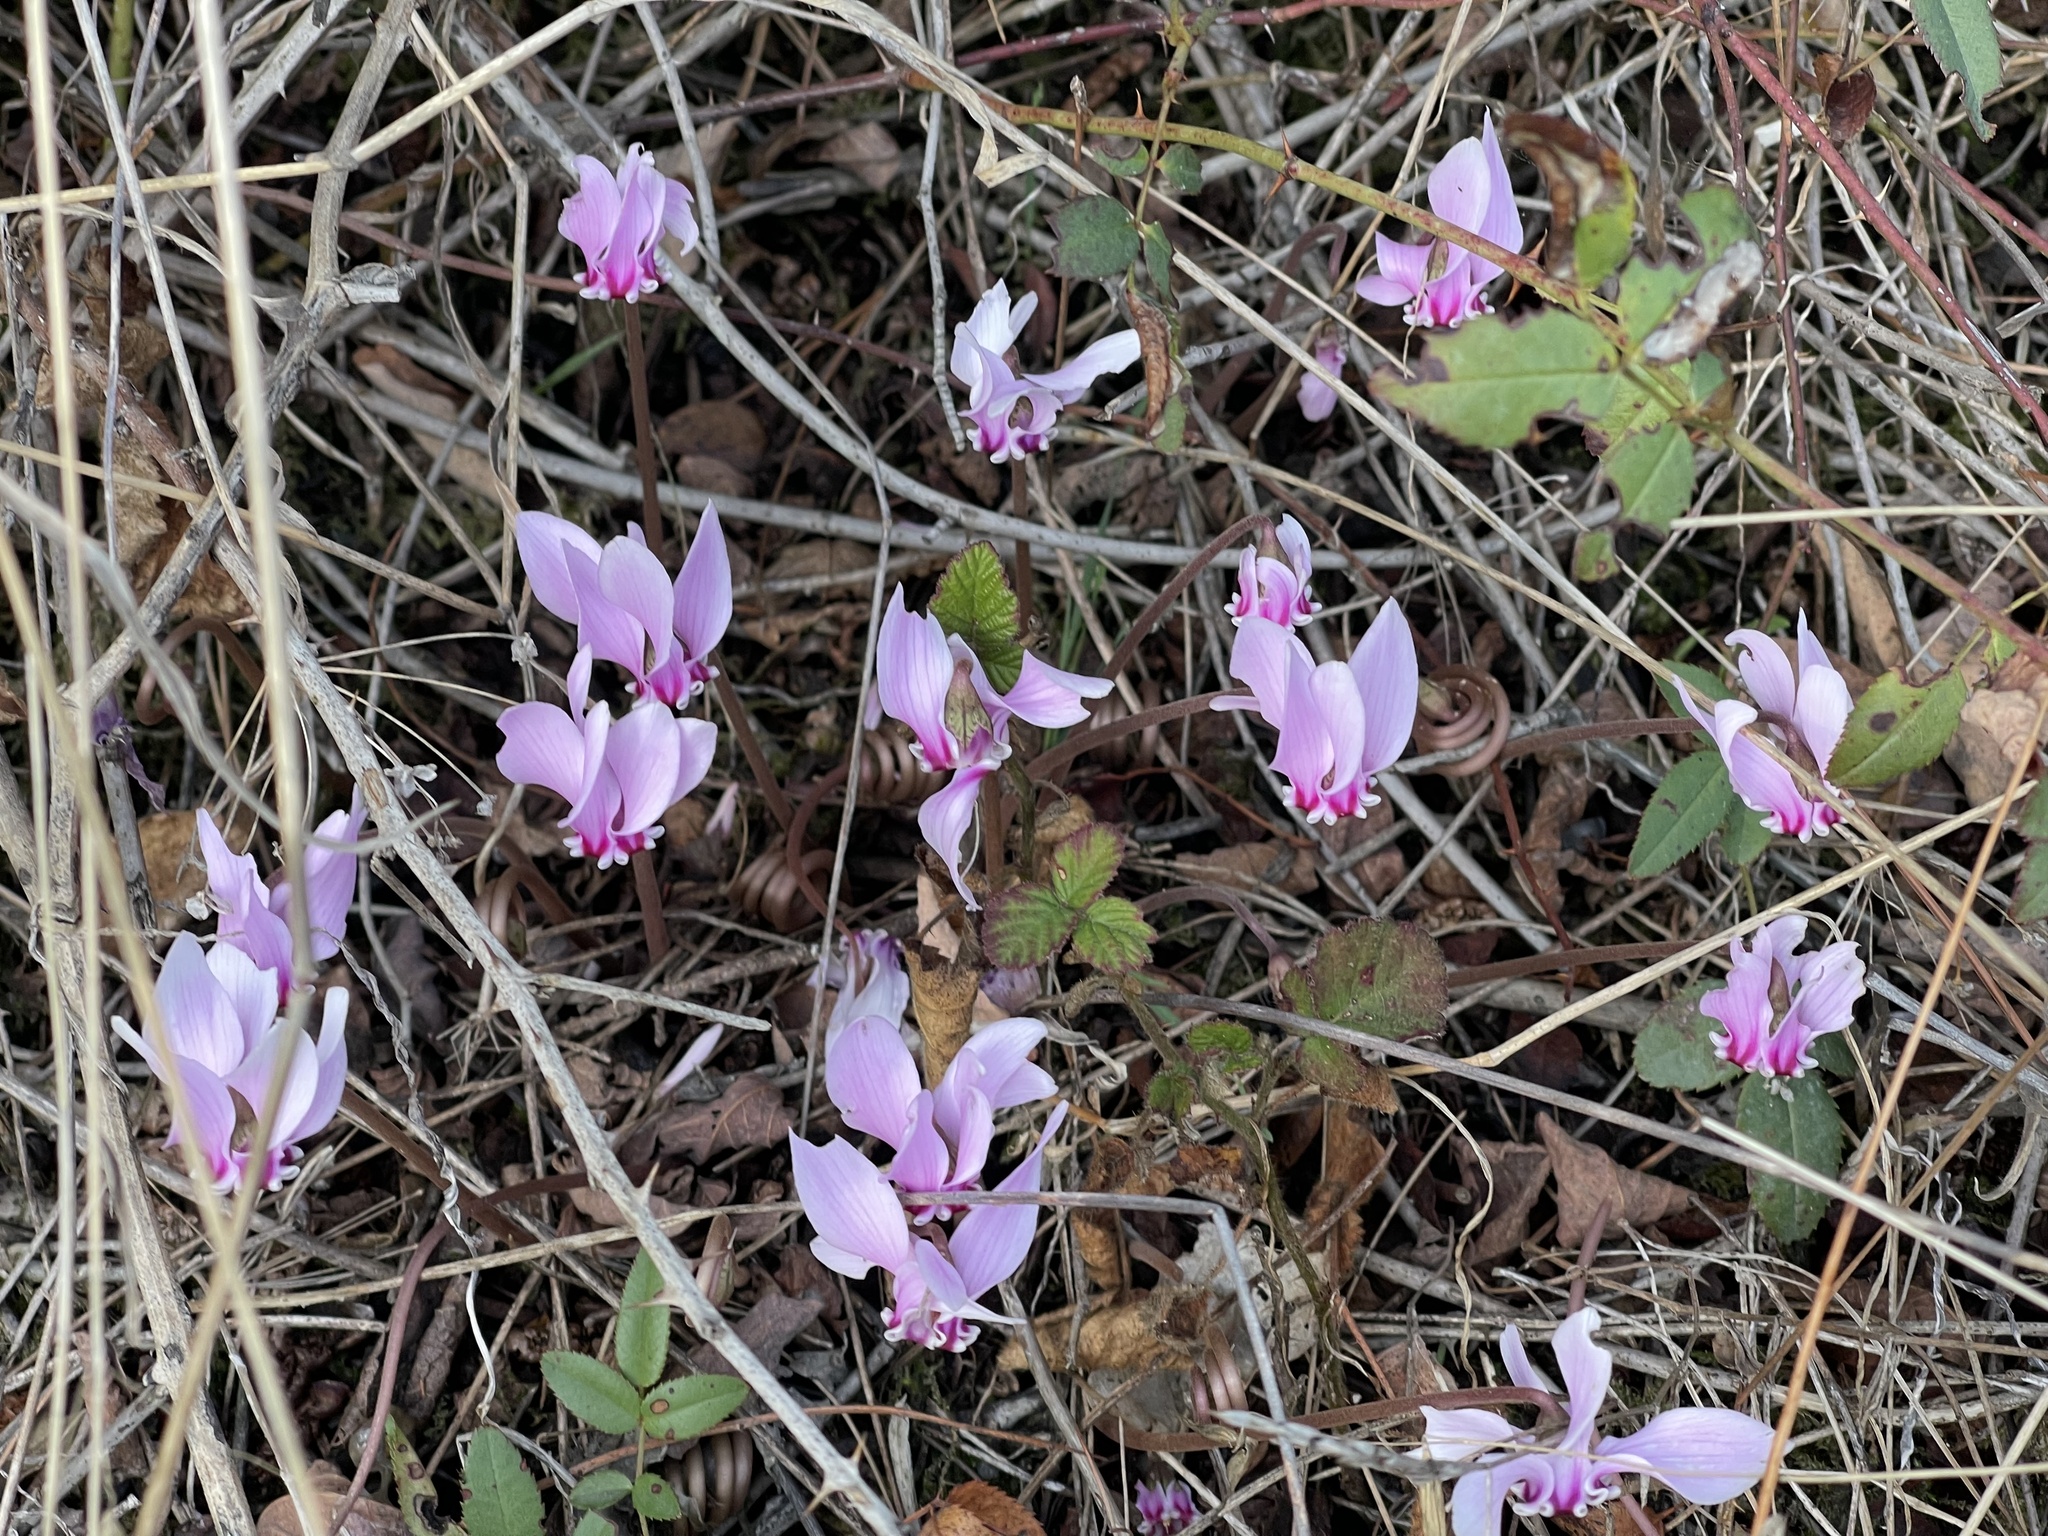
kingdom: Plantae
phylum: Tracheophyta
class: Magnoliopsida
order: Ericales
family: Primulaceae
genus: Cyclamen
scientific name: Cyclamen hederifolium
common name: Sowbread
